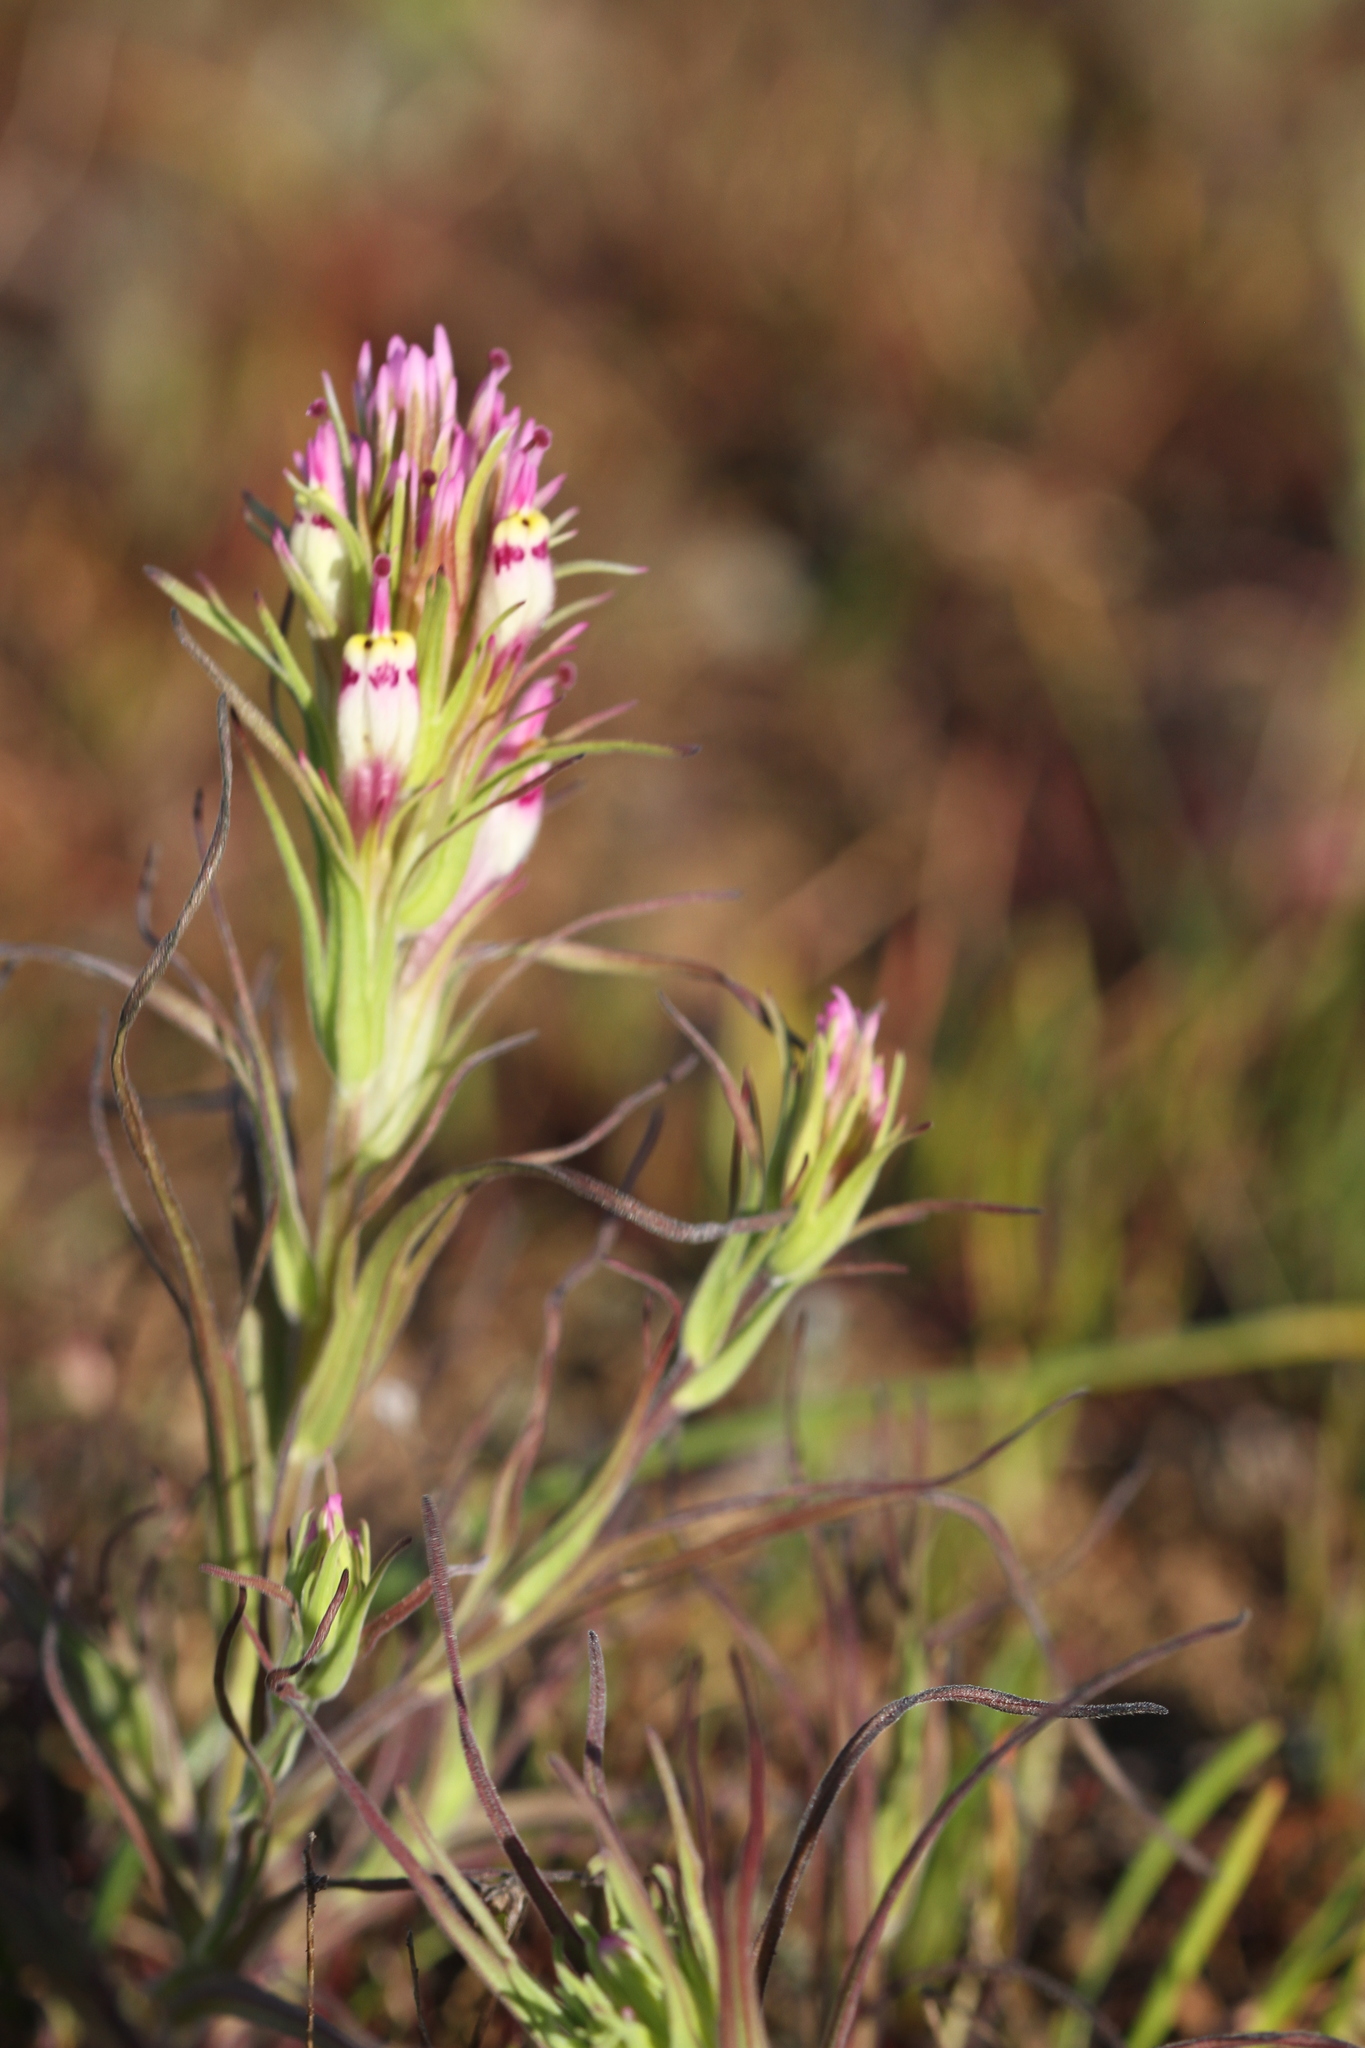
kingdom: Plantae
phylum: Tracheophyta
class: Magnoliopsida
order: Lamiales
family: Orobanchaceae
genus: Castilleja
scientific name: Castilleja densiflora
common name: Dense-flower indian paintbrush
